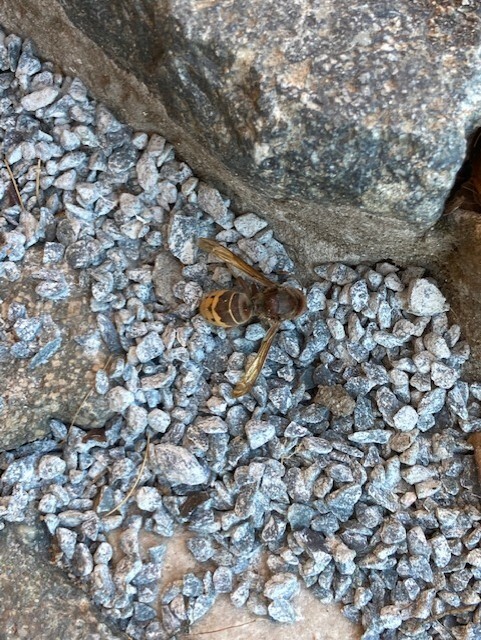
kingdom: Animalia
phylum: Arthropoda
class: Insecta
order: Hymenoptera
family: Vespidae
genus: Vespa
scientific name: Vespa crabro
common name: Hornet
